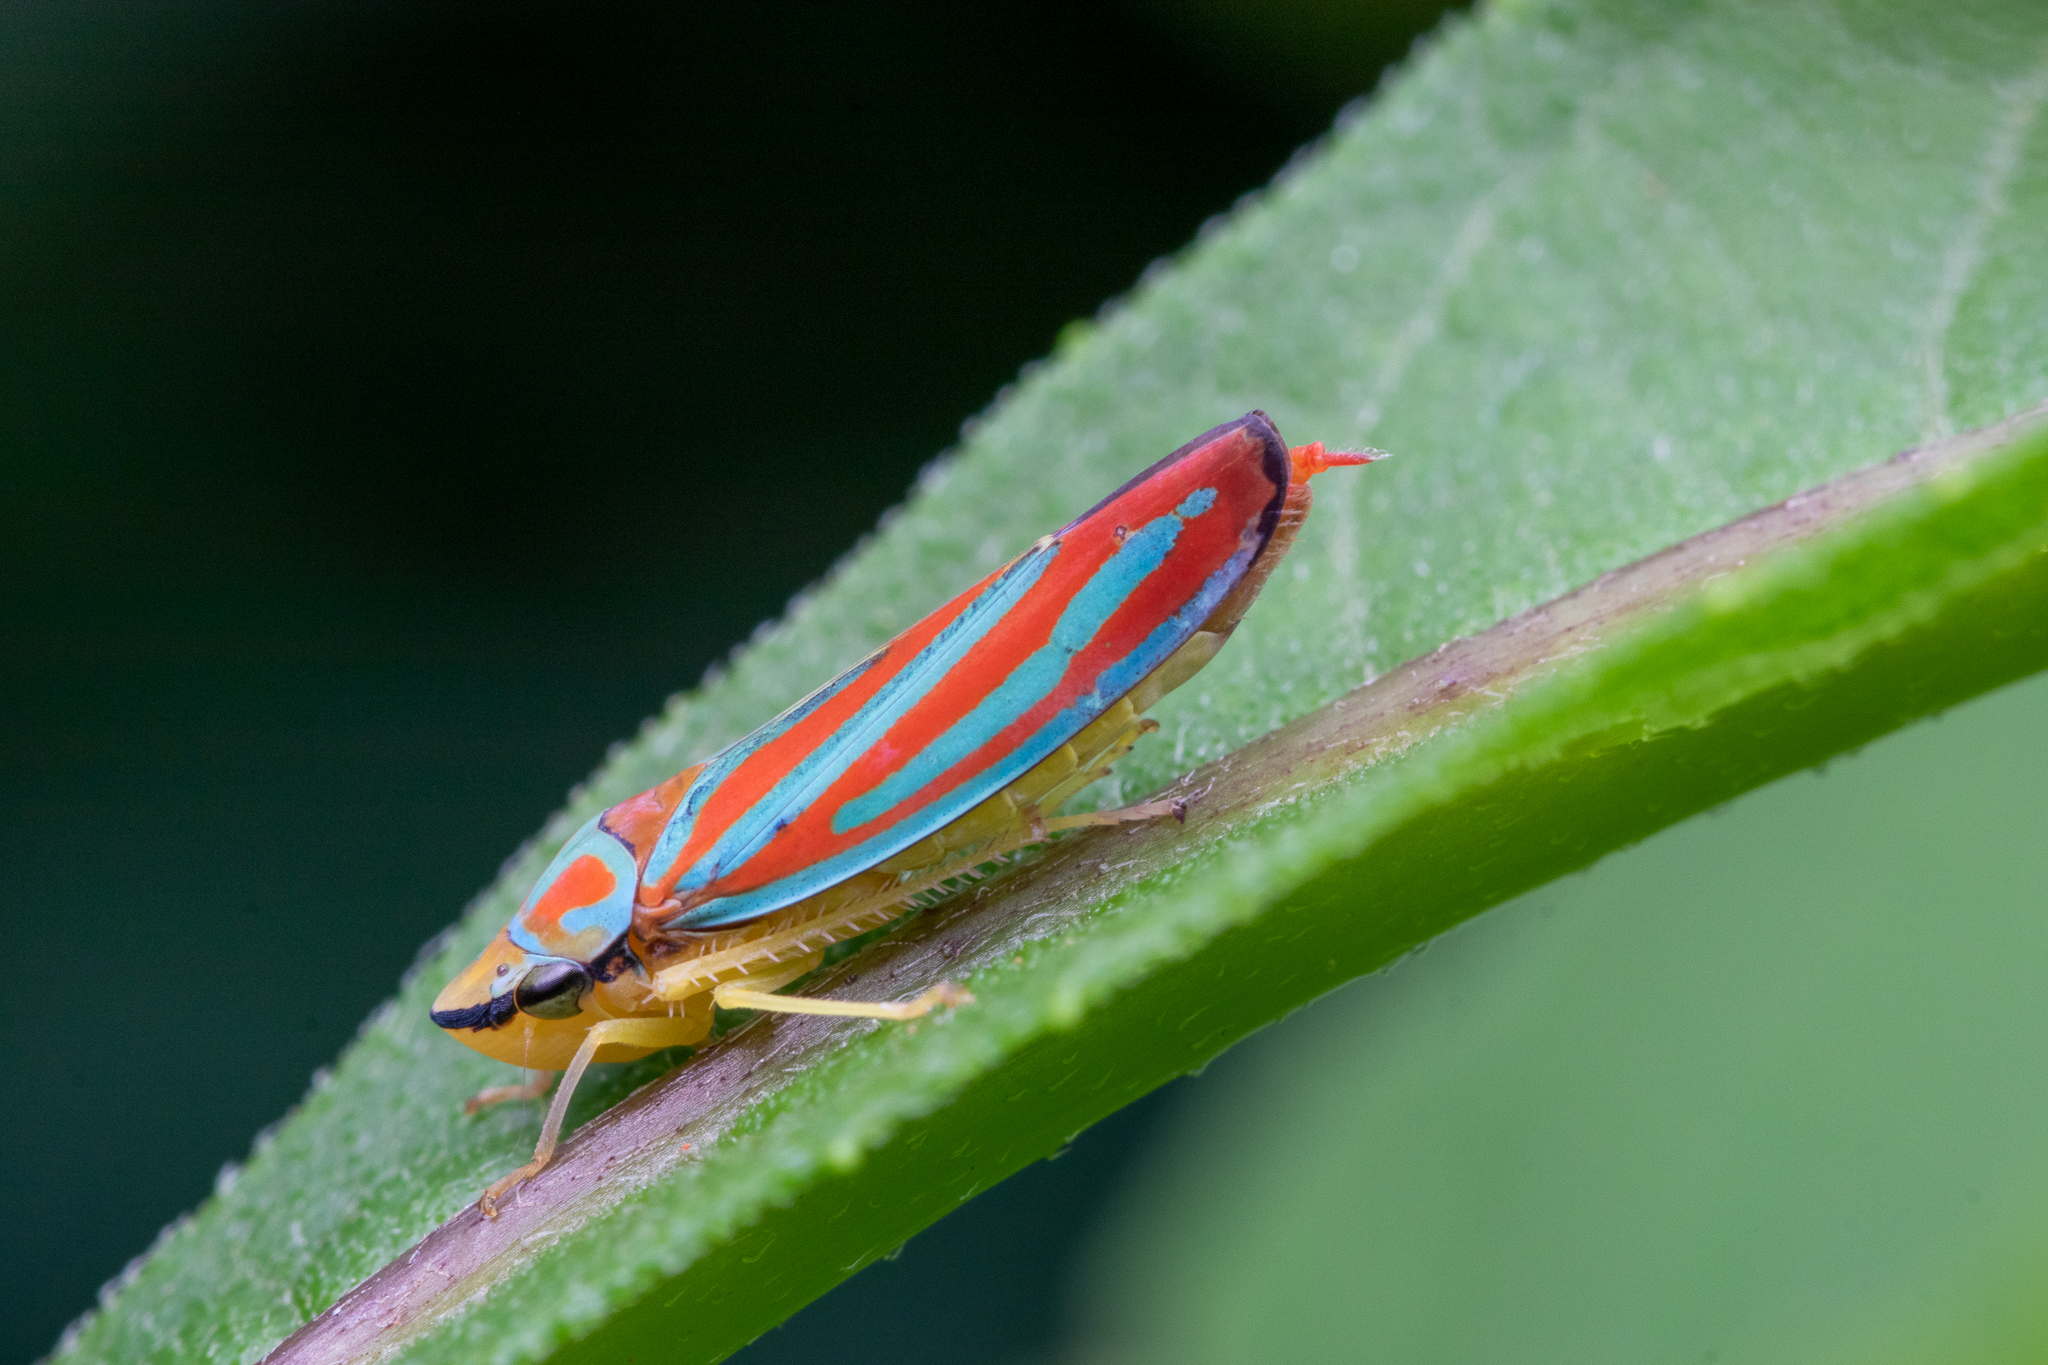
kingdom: Animalia
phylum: Arthropoda
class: Insecta
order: Hemiptera
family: Cicadellidae
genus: Graphocephala
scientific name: Graphocephala coccinea
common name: Candy-striped leafhopper
